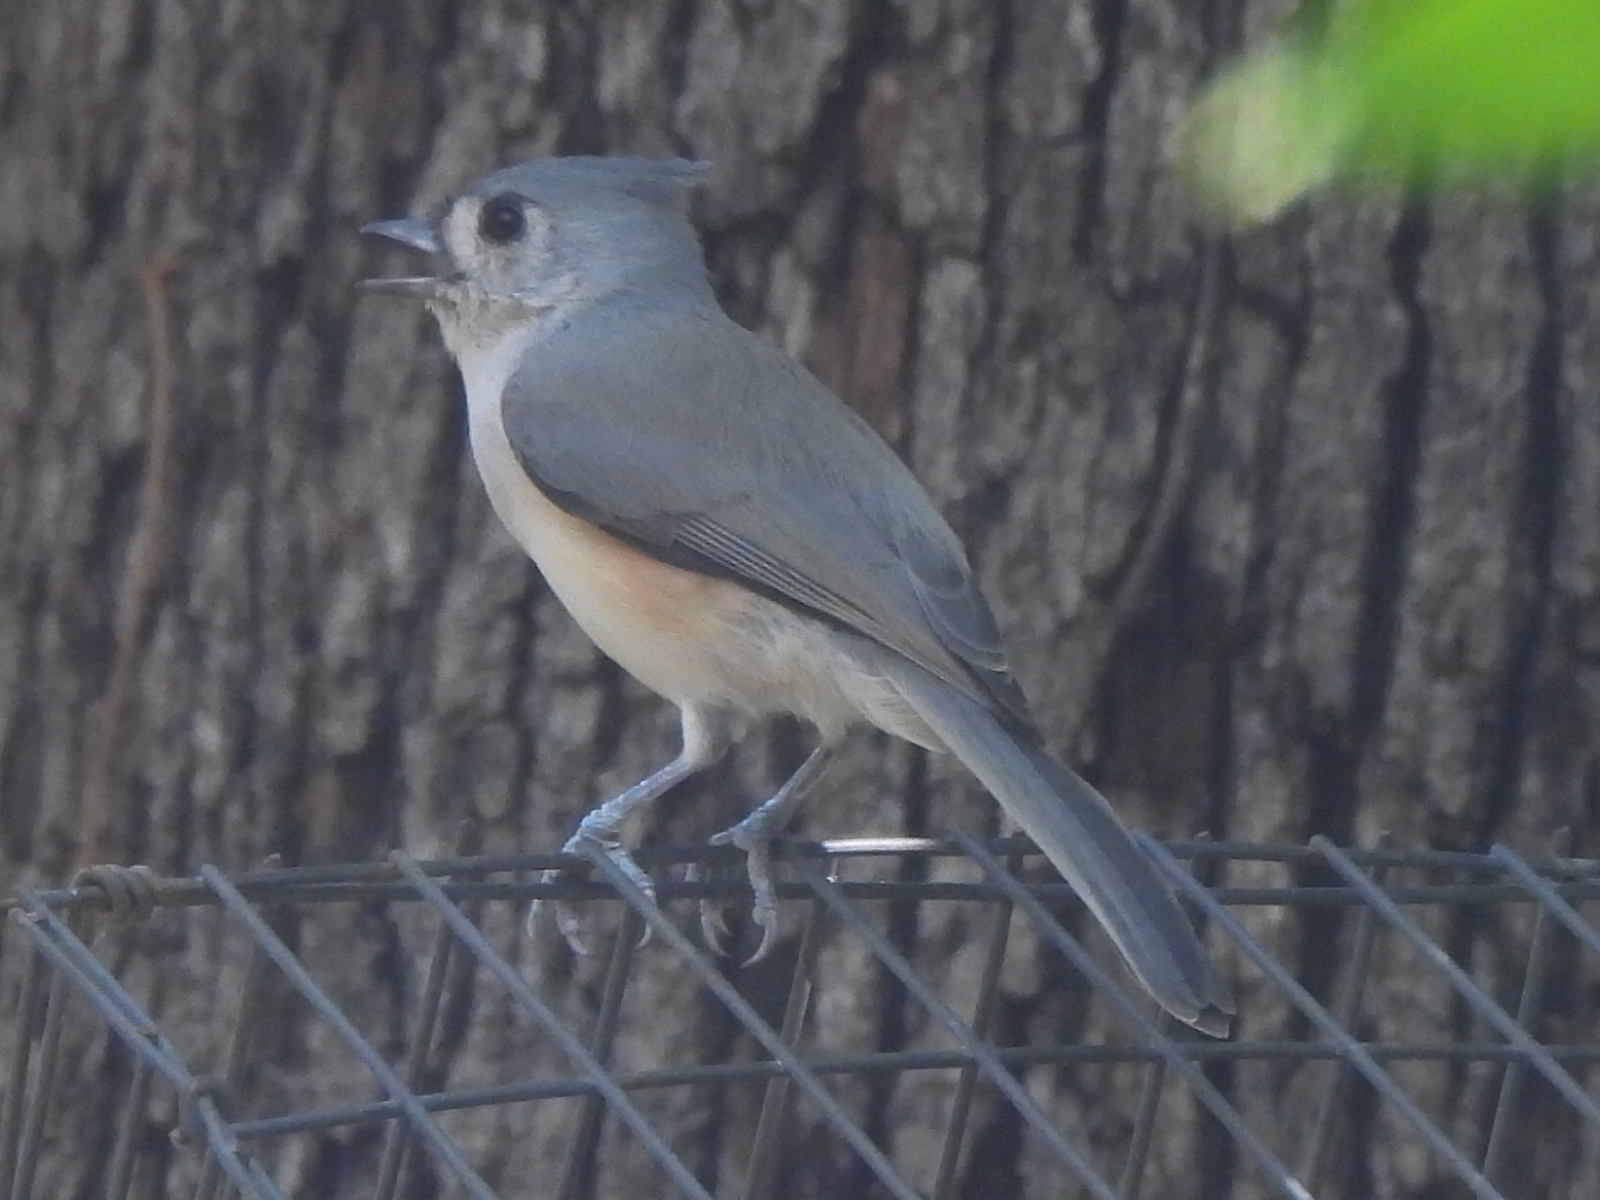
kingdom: Animalia
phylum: Chordata
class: Aves
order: Passeriformes
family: Paridae
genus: Baeolophus
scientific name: Baeolophus bicolor
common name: Tufted titmouse
